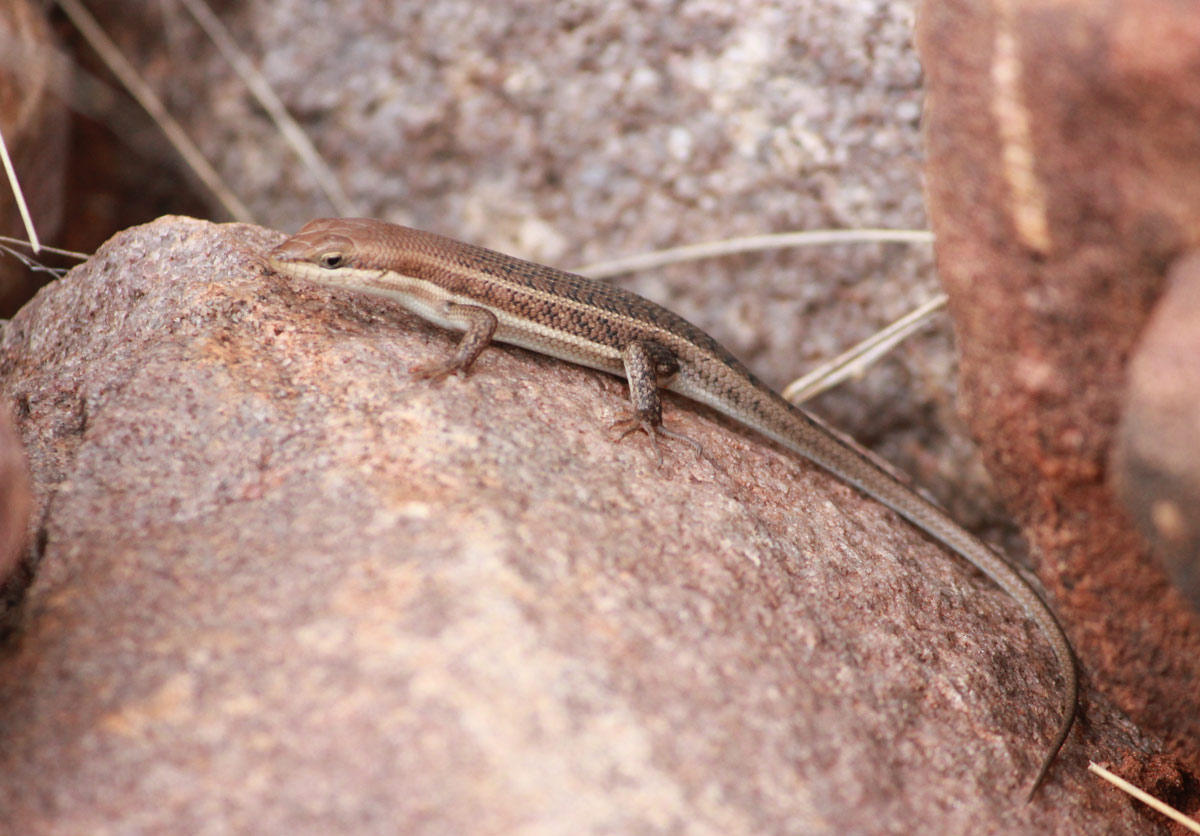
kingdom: Animalia
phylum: Chordata
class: Squamata
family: Scincidae
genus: Trachylepis
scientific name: Trachylepis varia
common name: Eastern variable skink
